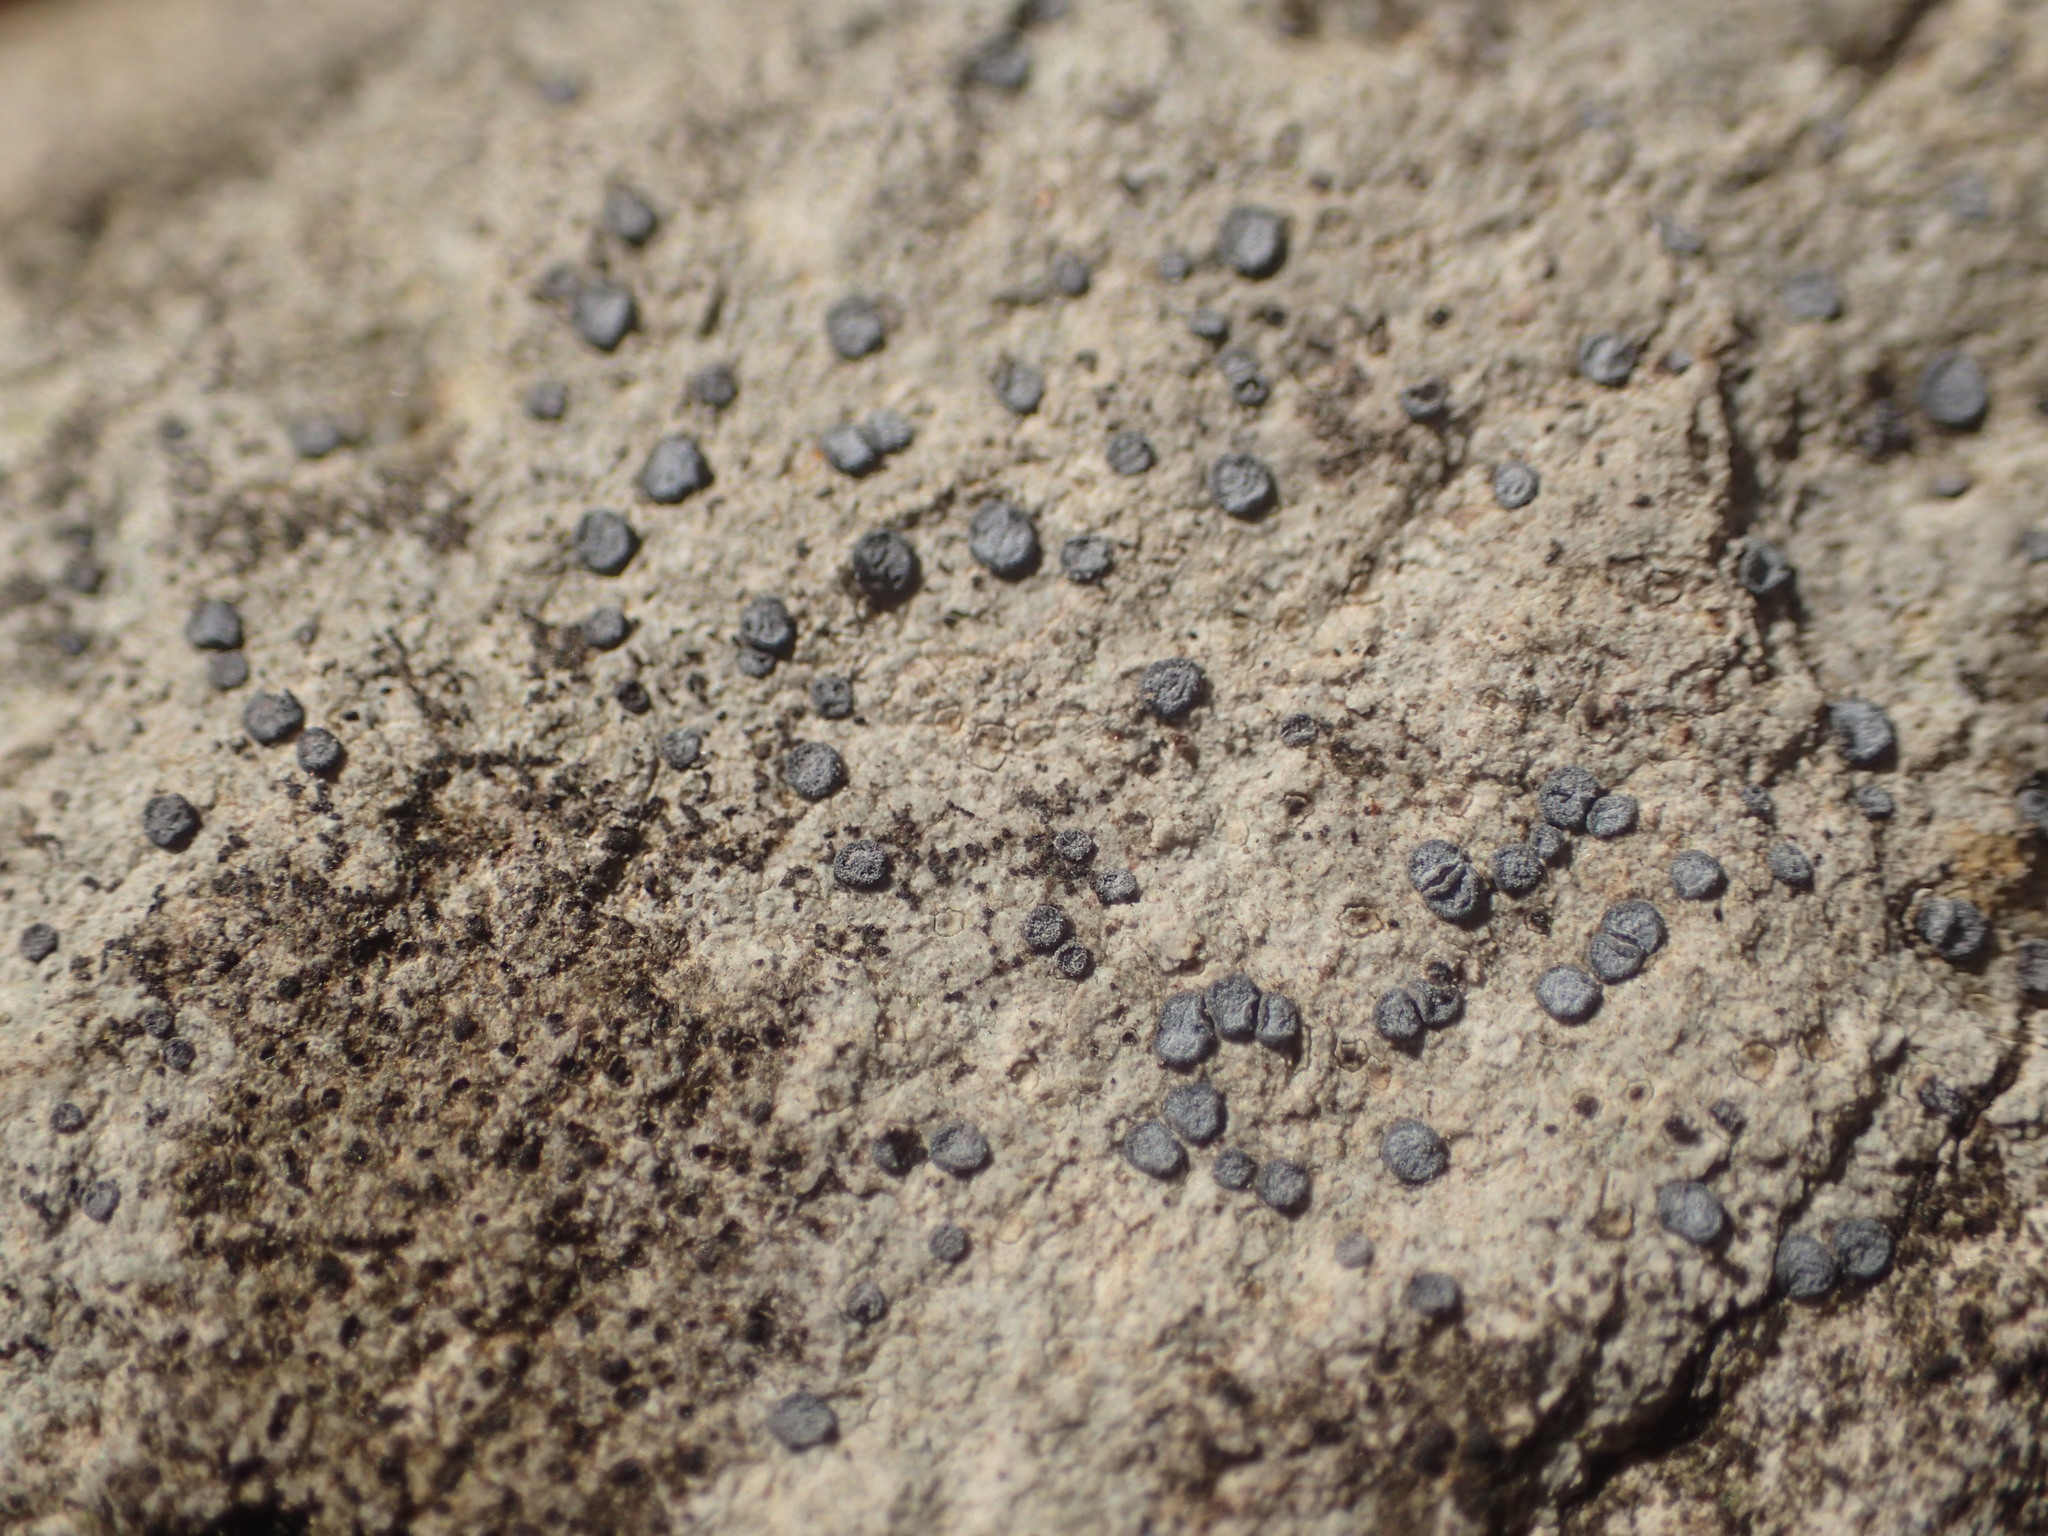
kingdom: Fungi
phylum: Ascomycota
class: Lecanoromycetes
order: Acarosporales
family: Acarosporaceae
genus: Sarcogyne
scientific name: Sarcogyne regularis
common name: Frosted grain-spored lichen
